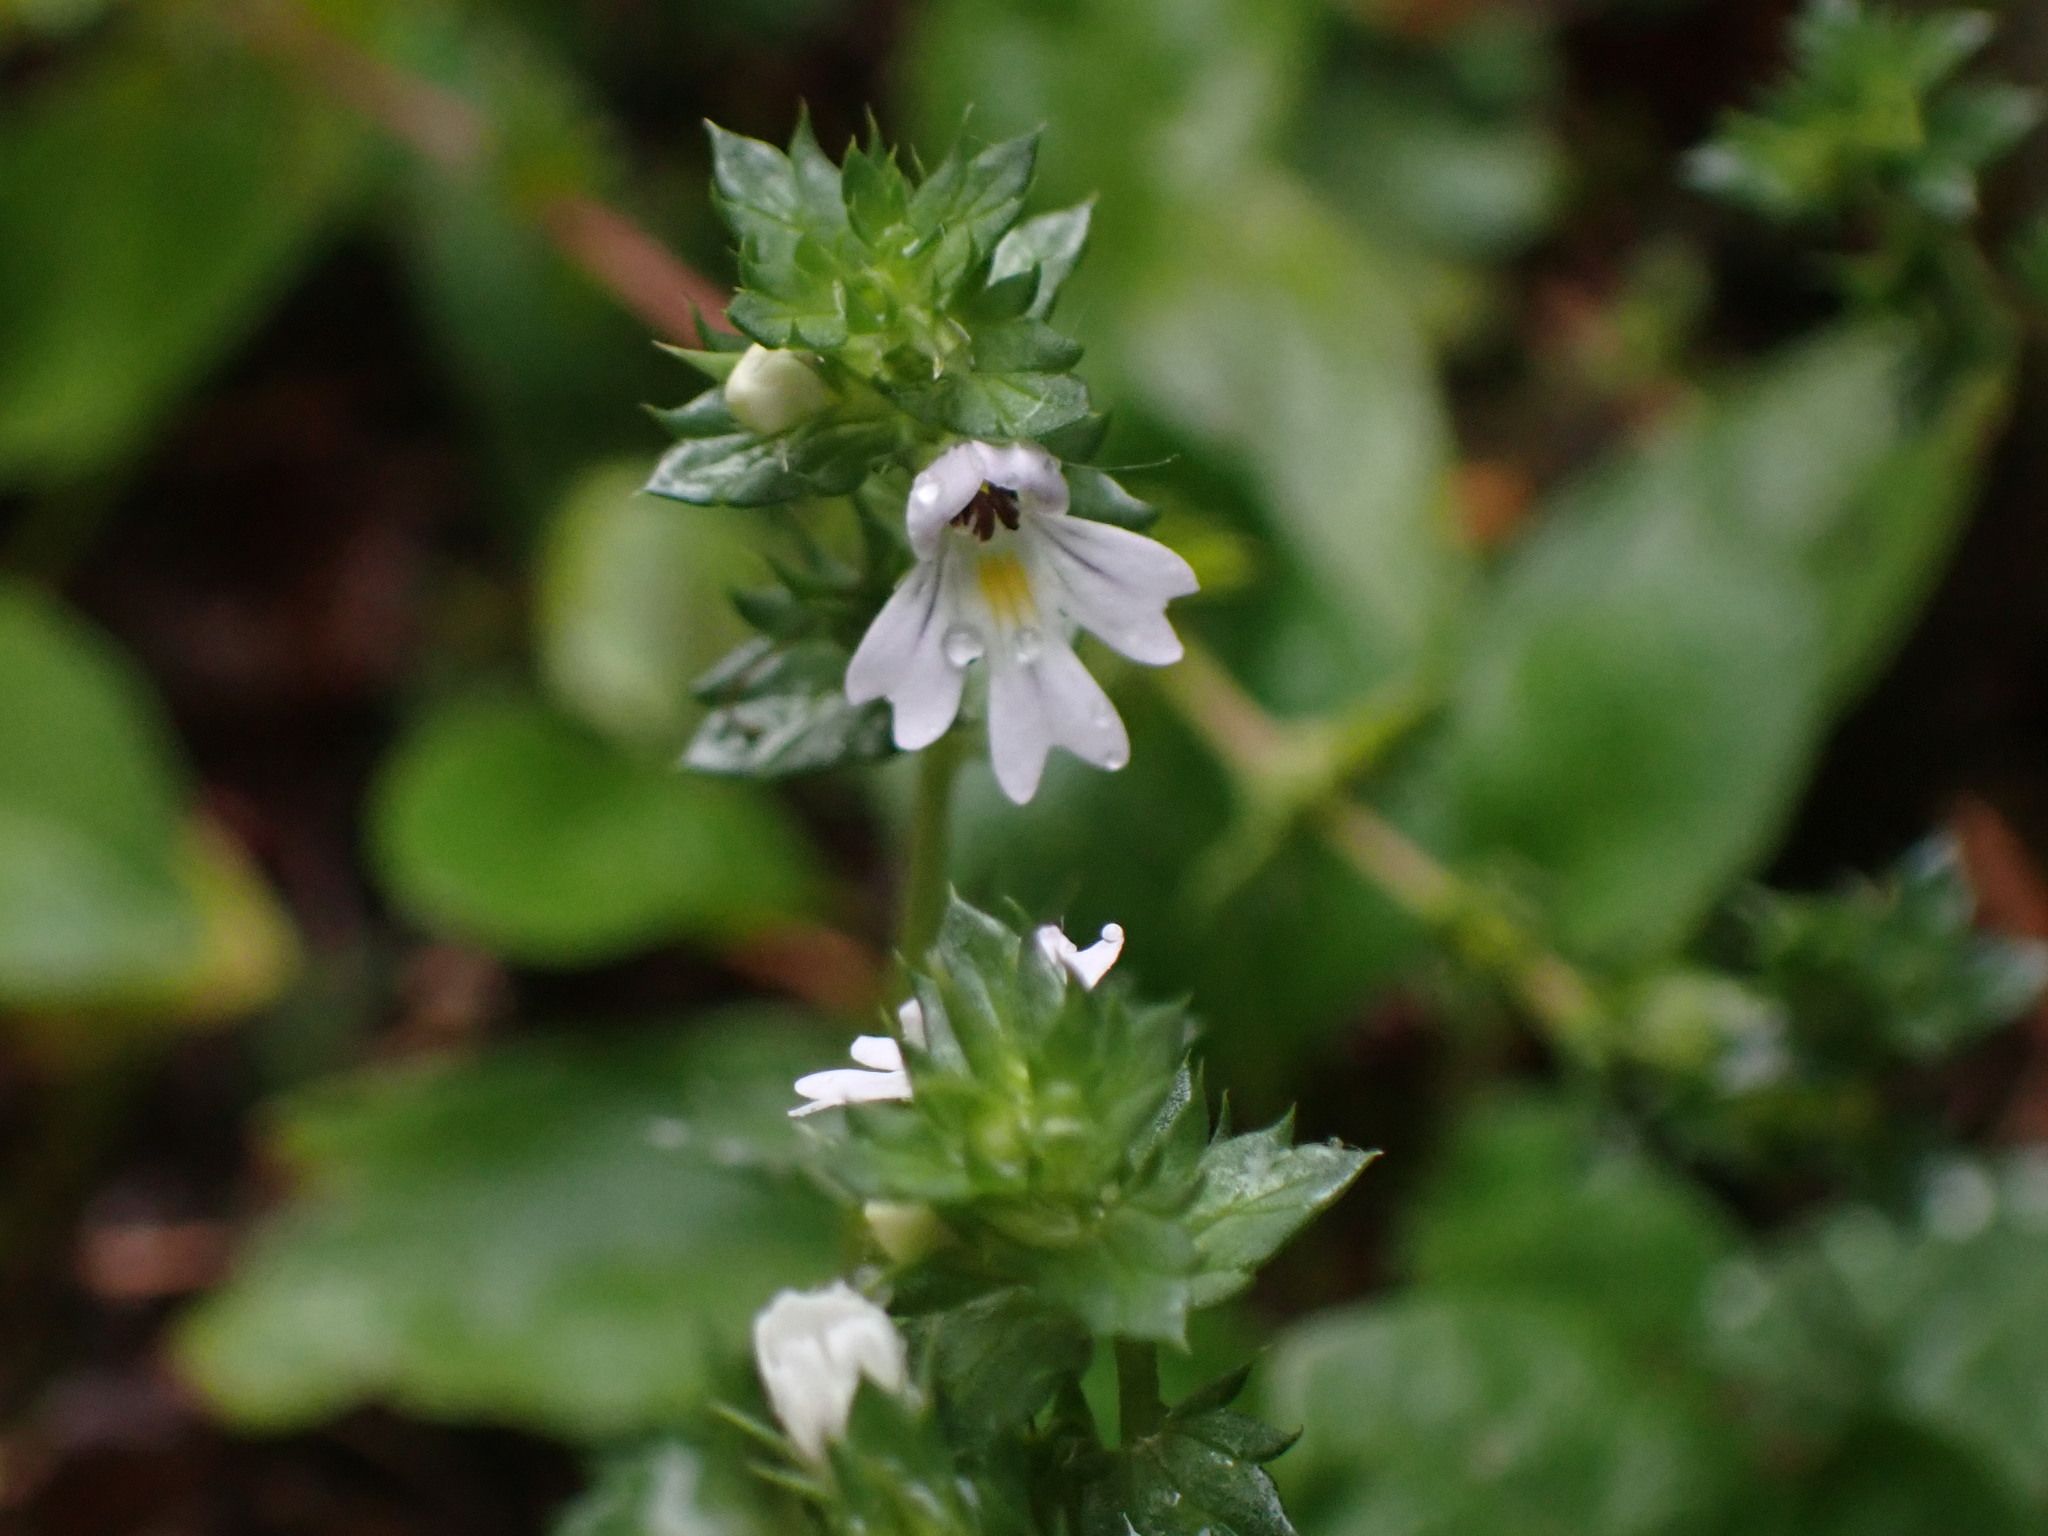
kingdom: Plantae
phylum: Tracheophyta
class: Magnoliopsida
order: Lamiales
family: Orobanchaceae
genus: Euphrasia
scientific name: Euphrasia nemorosa
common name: Common eyebright
